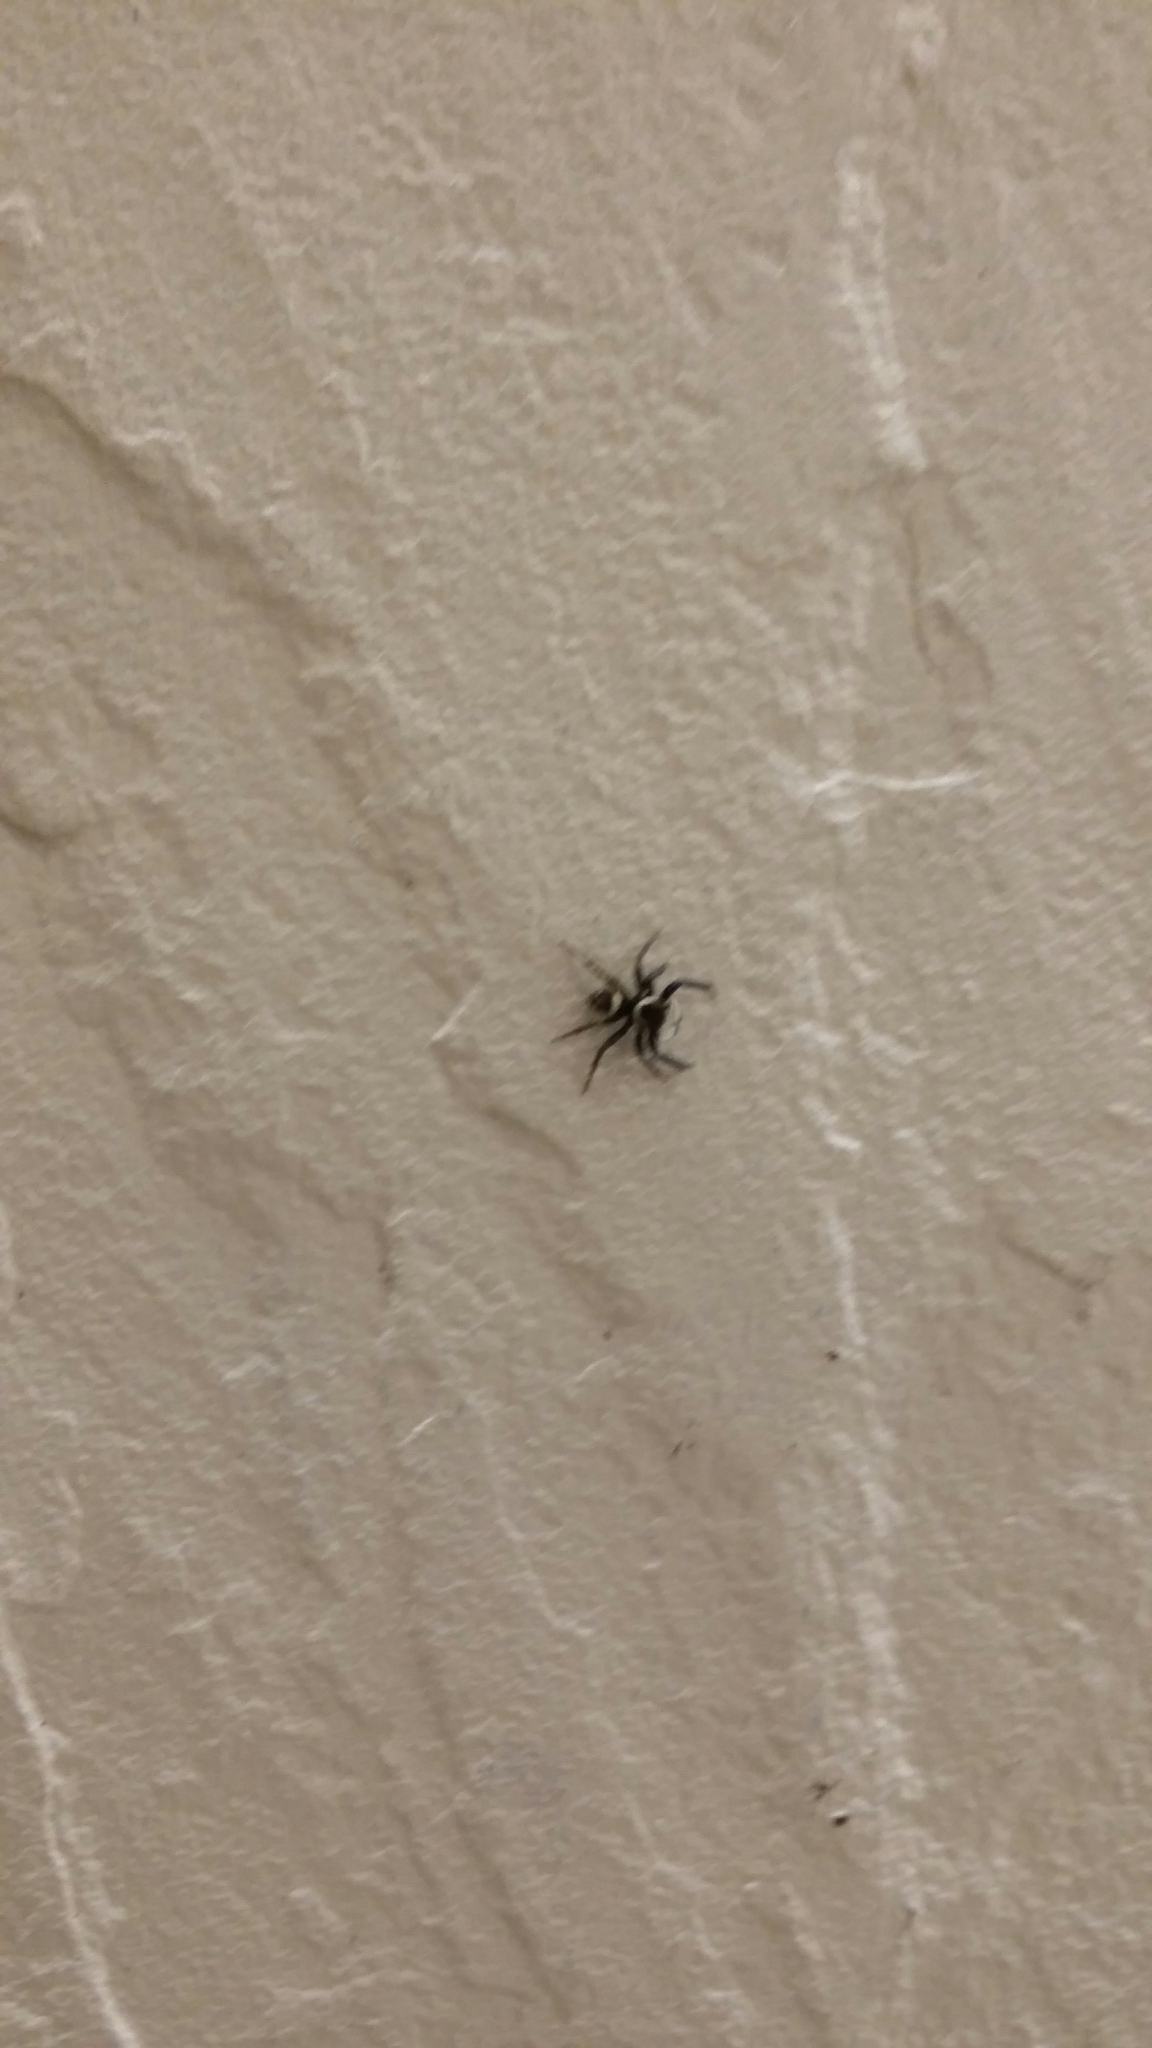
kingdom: Animalia
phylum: Arthropoda
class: Arachnida
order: Araneae
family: Salticidae
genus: Hasarius
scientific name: Hasarius adansoni
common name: Jumping spider
